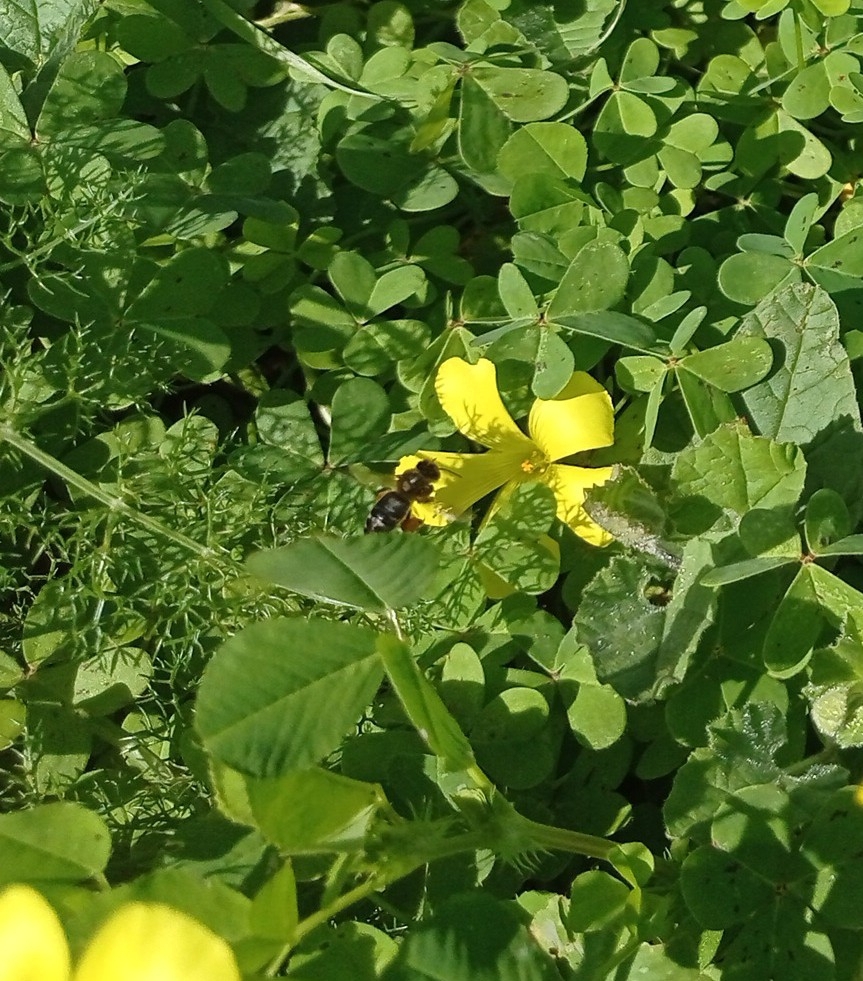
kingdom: Animalia
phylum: Arthropoda
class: Insecta
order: Hymenoptera
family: Apidae
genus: Apis
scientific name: Apis mellifera
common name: Honey bee
